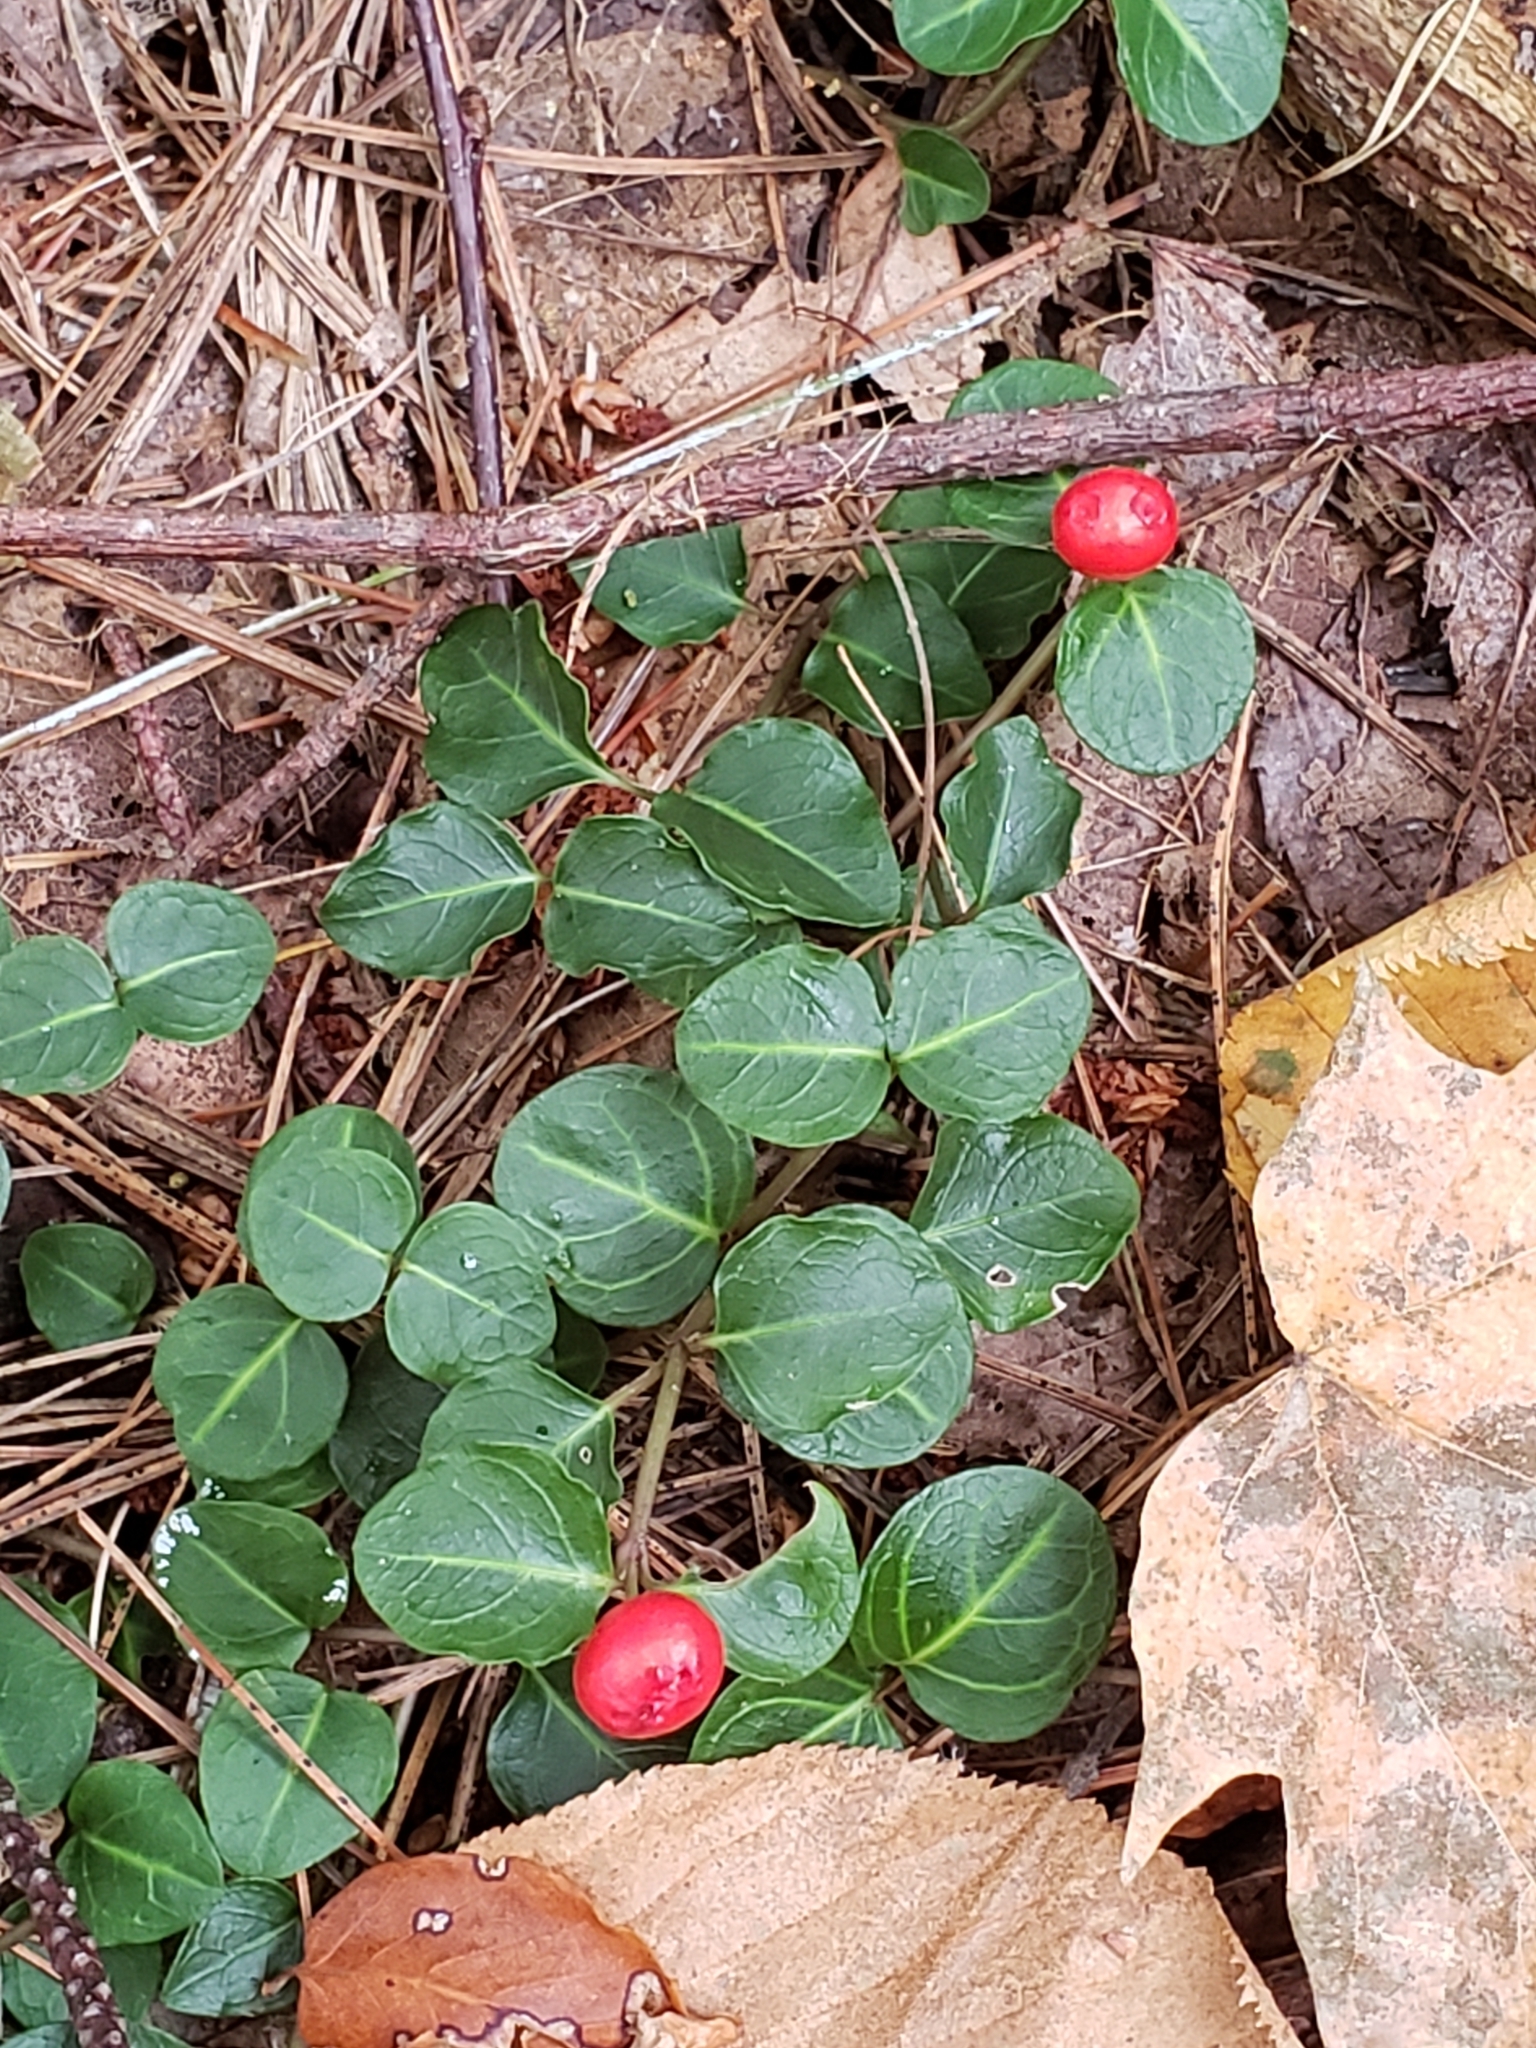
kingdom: Plantae
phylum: Tracheophyta
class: Magnoliopsida
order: Gentianales
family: Rubiaceae
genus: Mitchella
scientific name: Mitchella repens
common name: Partridge-berry
